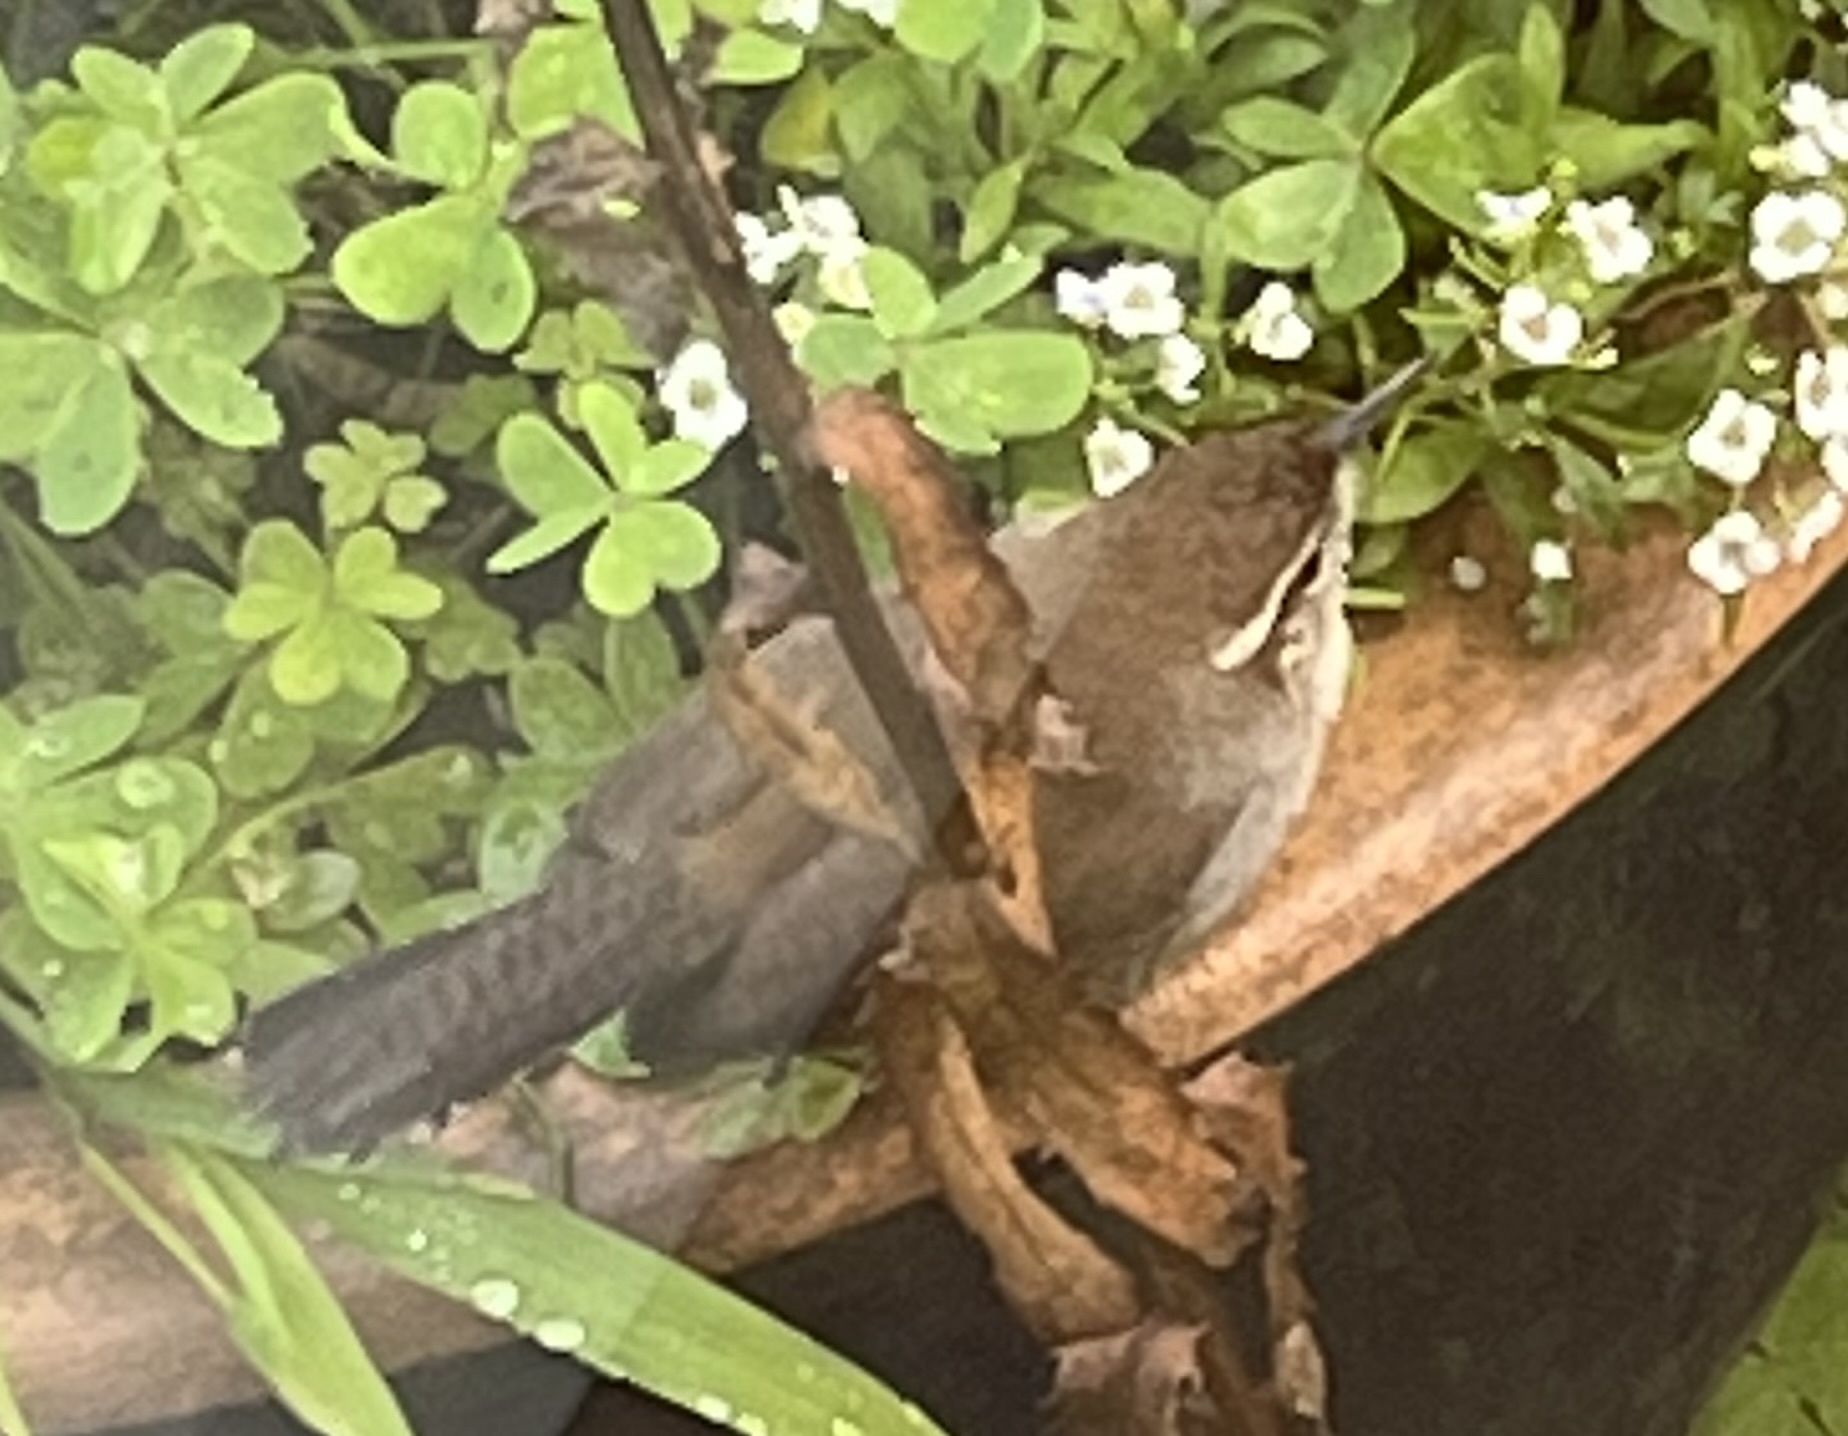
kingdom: Animalia
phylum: Chordata
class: Aves
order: Passeriformes
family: Troglodytidae
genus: Thryomanes
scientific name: Thryomanes bewickii
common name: Bewick's wren
